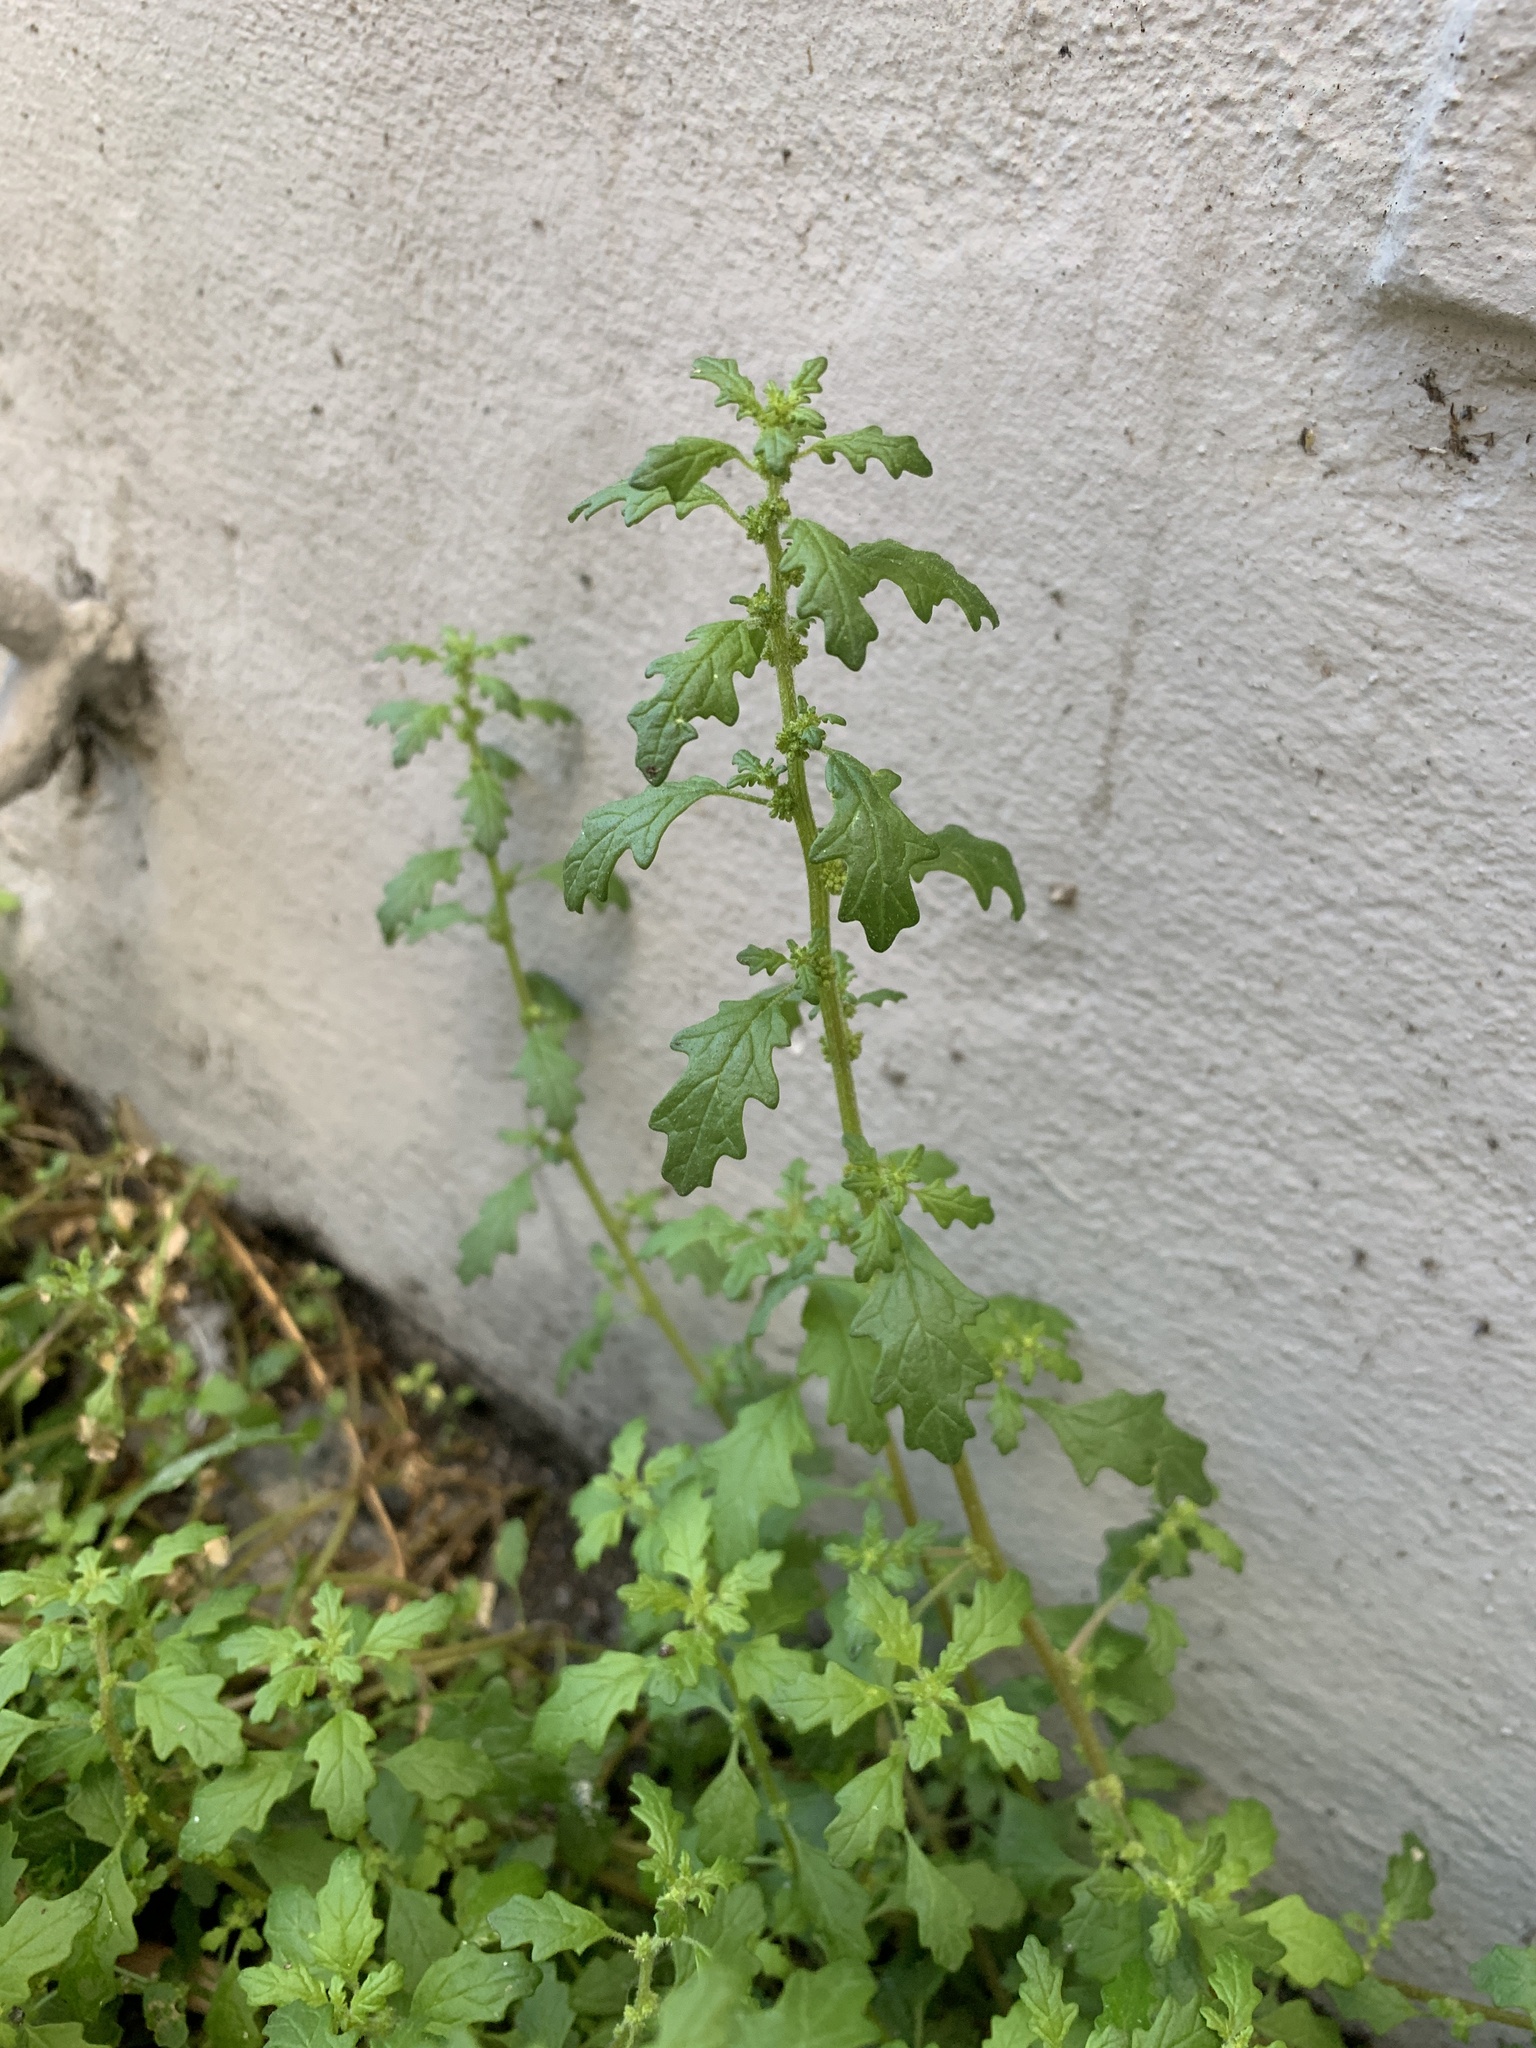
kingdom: Plantae
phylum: Tracheophyta
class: Magnoliopsida
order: Caryophyllales
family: Amaranthaceae
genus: Dysphania
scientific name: Dysphania pumilio
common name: Clammy goosefoot
